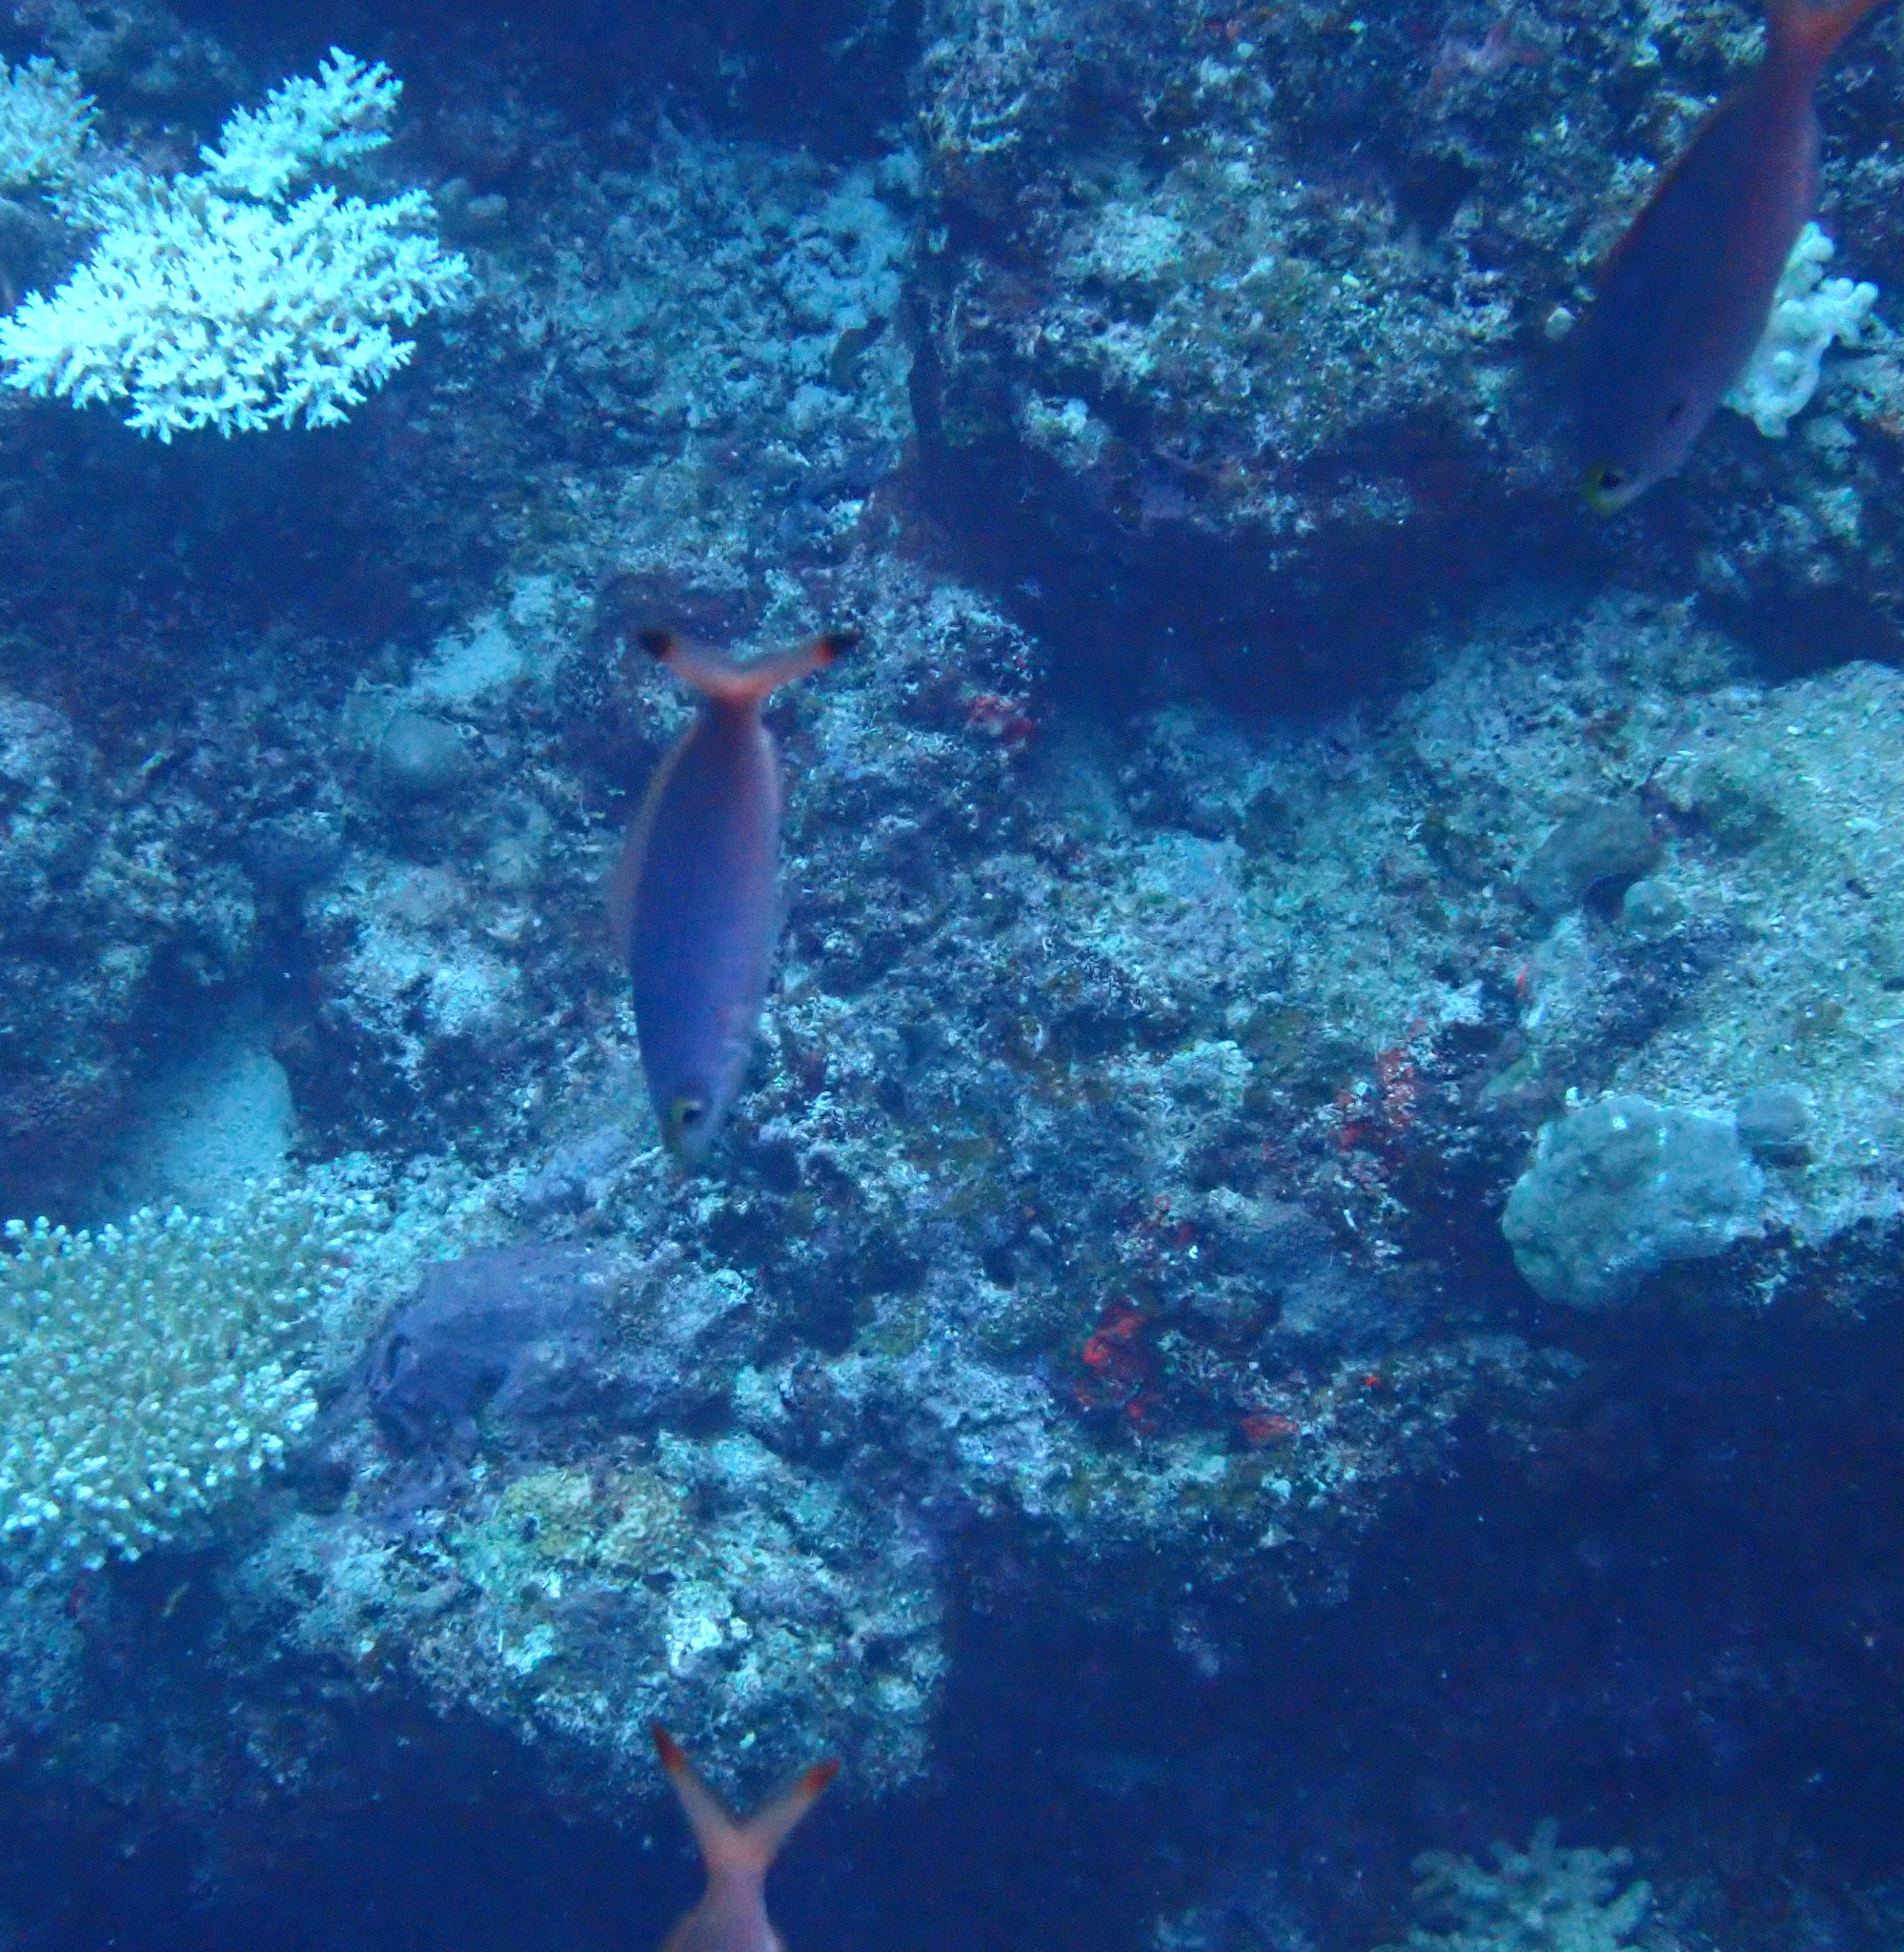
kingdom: Animalia
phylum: Chordata
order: Perciformes
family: Caesionidae
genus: Pterocaesio
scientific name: Pterocaesio pisang
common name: Banana fusilier
